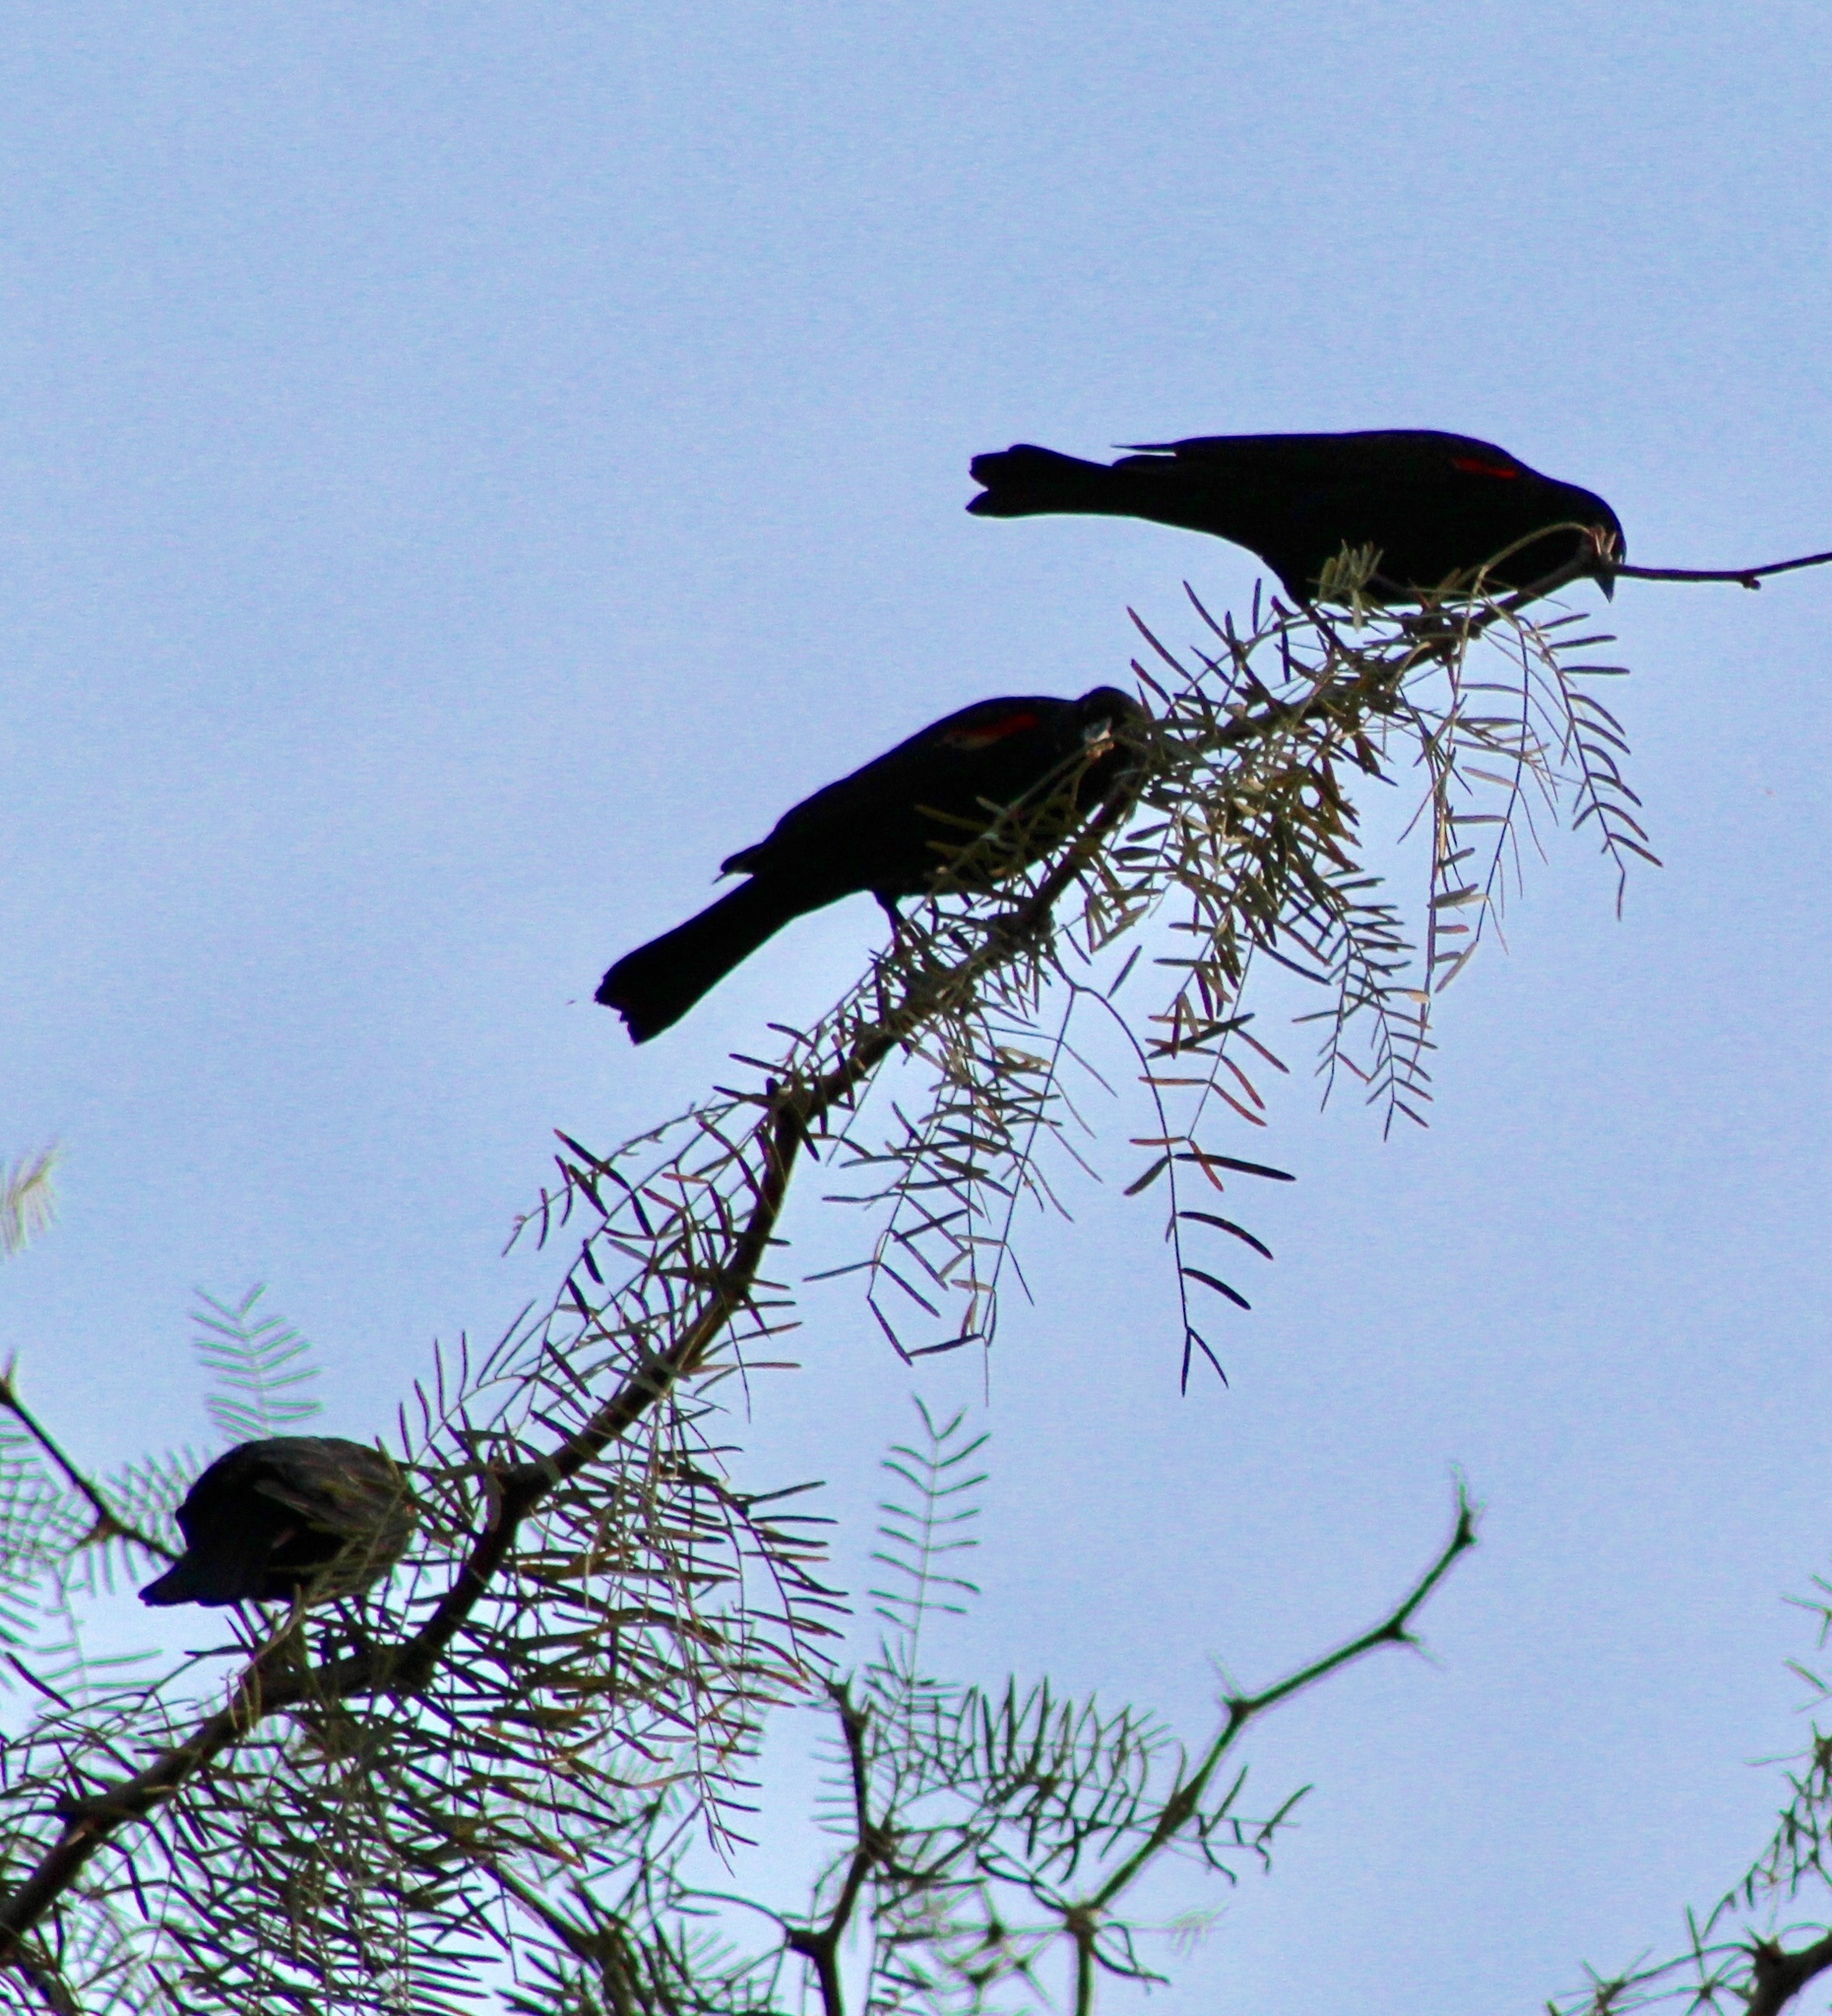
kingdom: Animalia
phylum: Chordata
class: Aves
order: Passeriformes
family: Icteridae
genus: Agelaius
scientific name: Agelaius phoeniceus
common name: Red-winged blackbird
